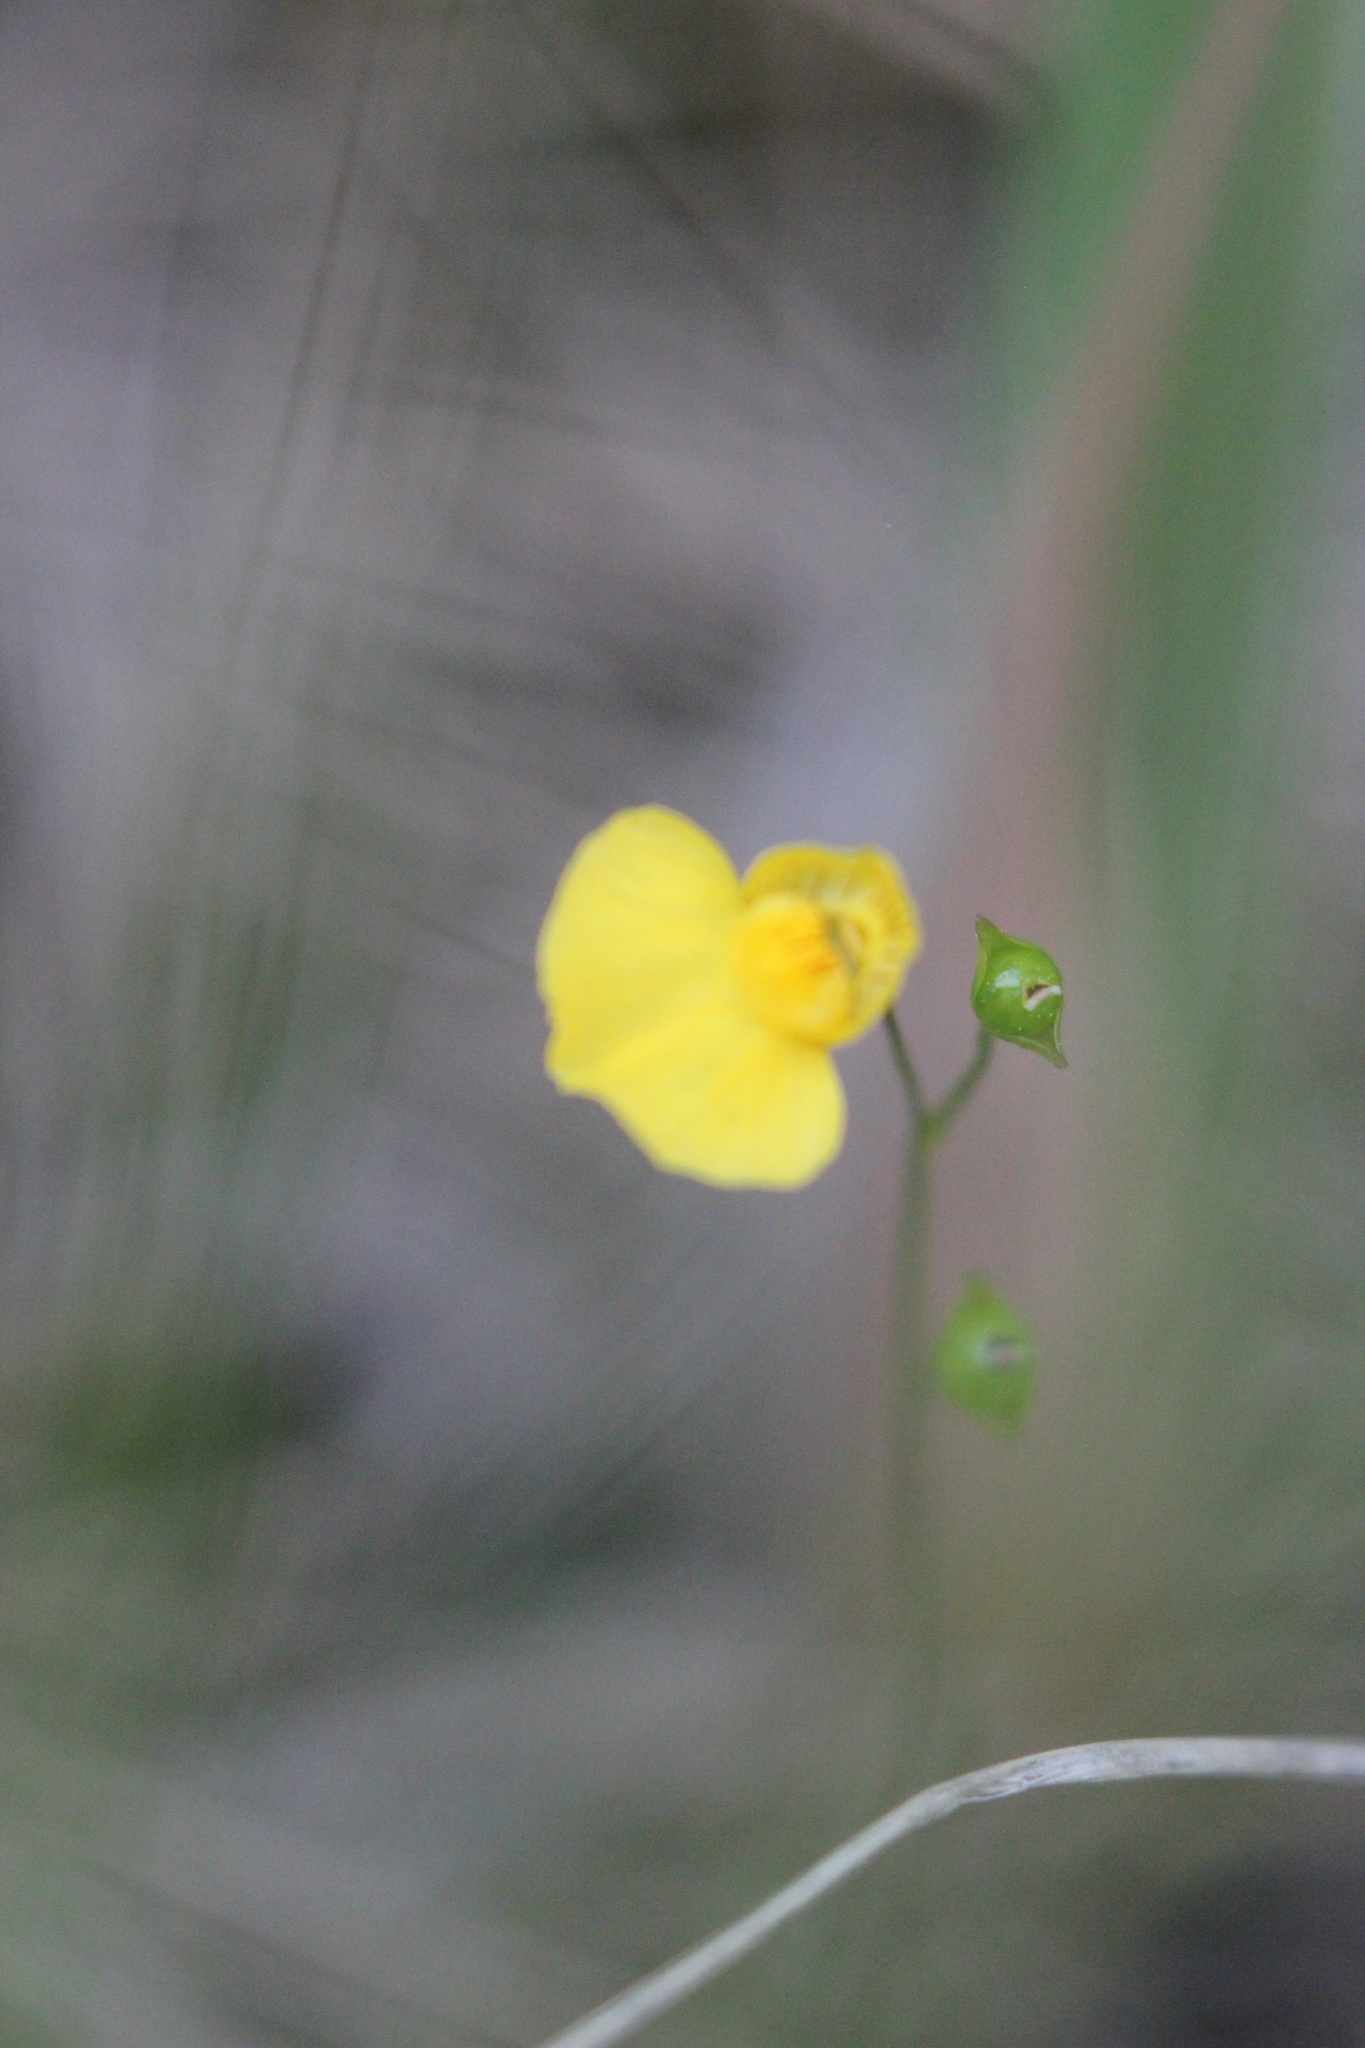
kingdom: Plantae
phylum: Tracheophyta
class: Magnoliopsida
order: Lamiales
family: Lentibulariaceae
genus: Utricularia
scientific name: Utricularia intermedia
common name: Intermediate bladderwort
